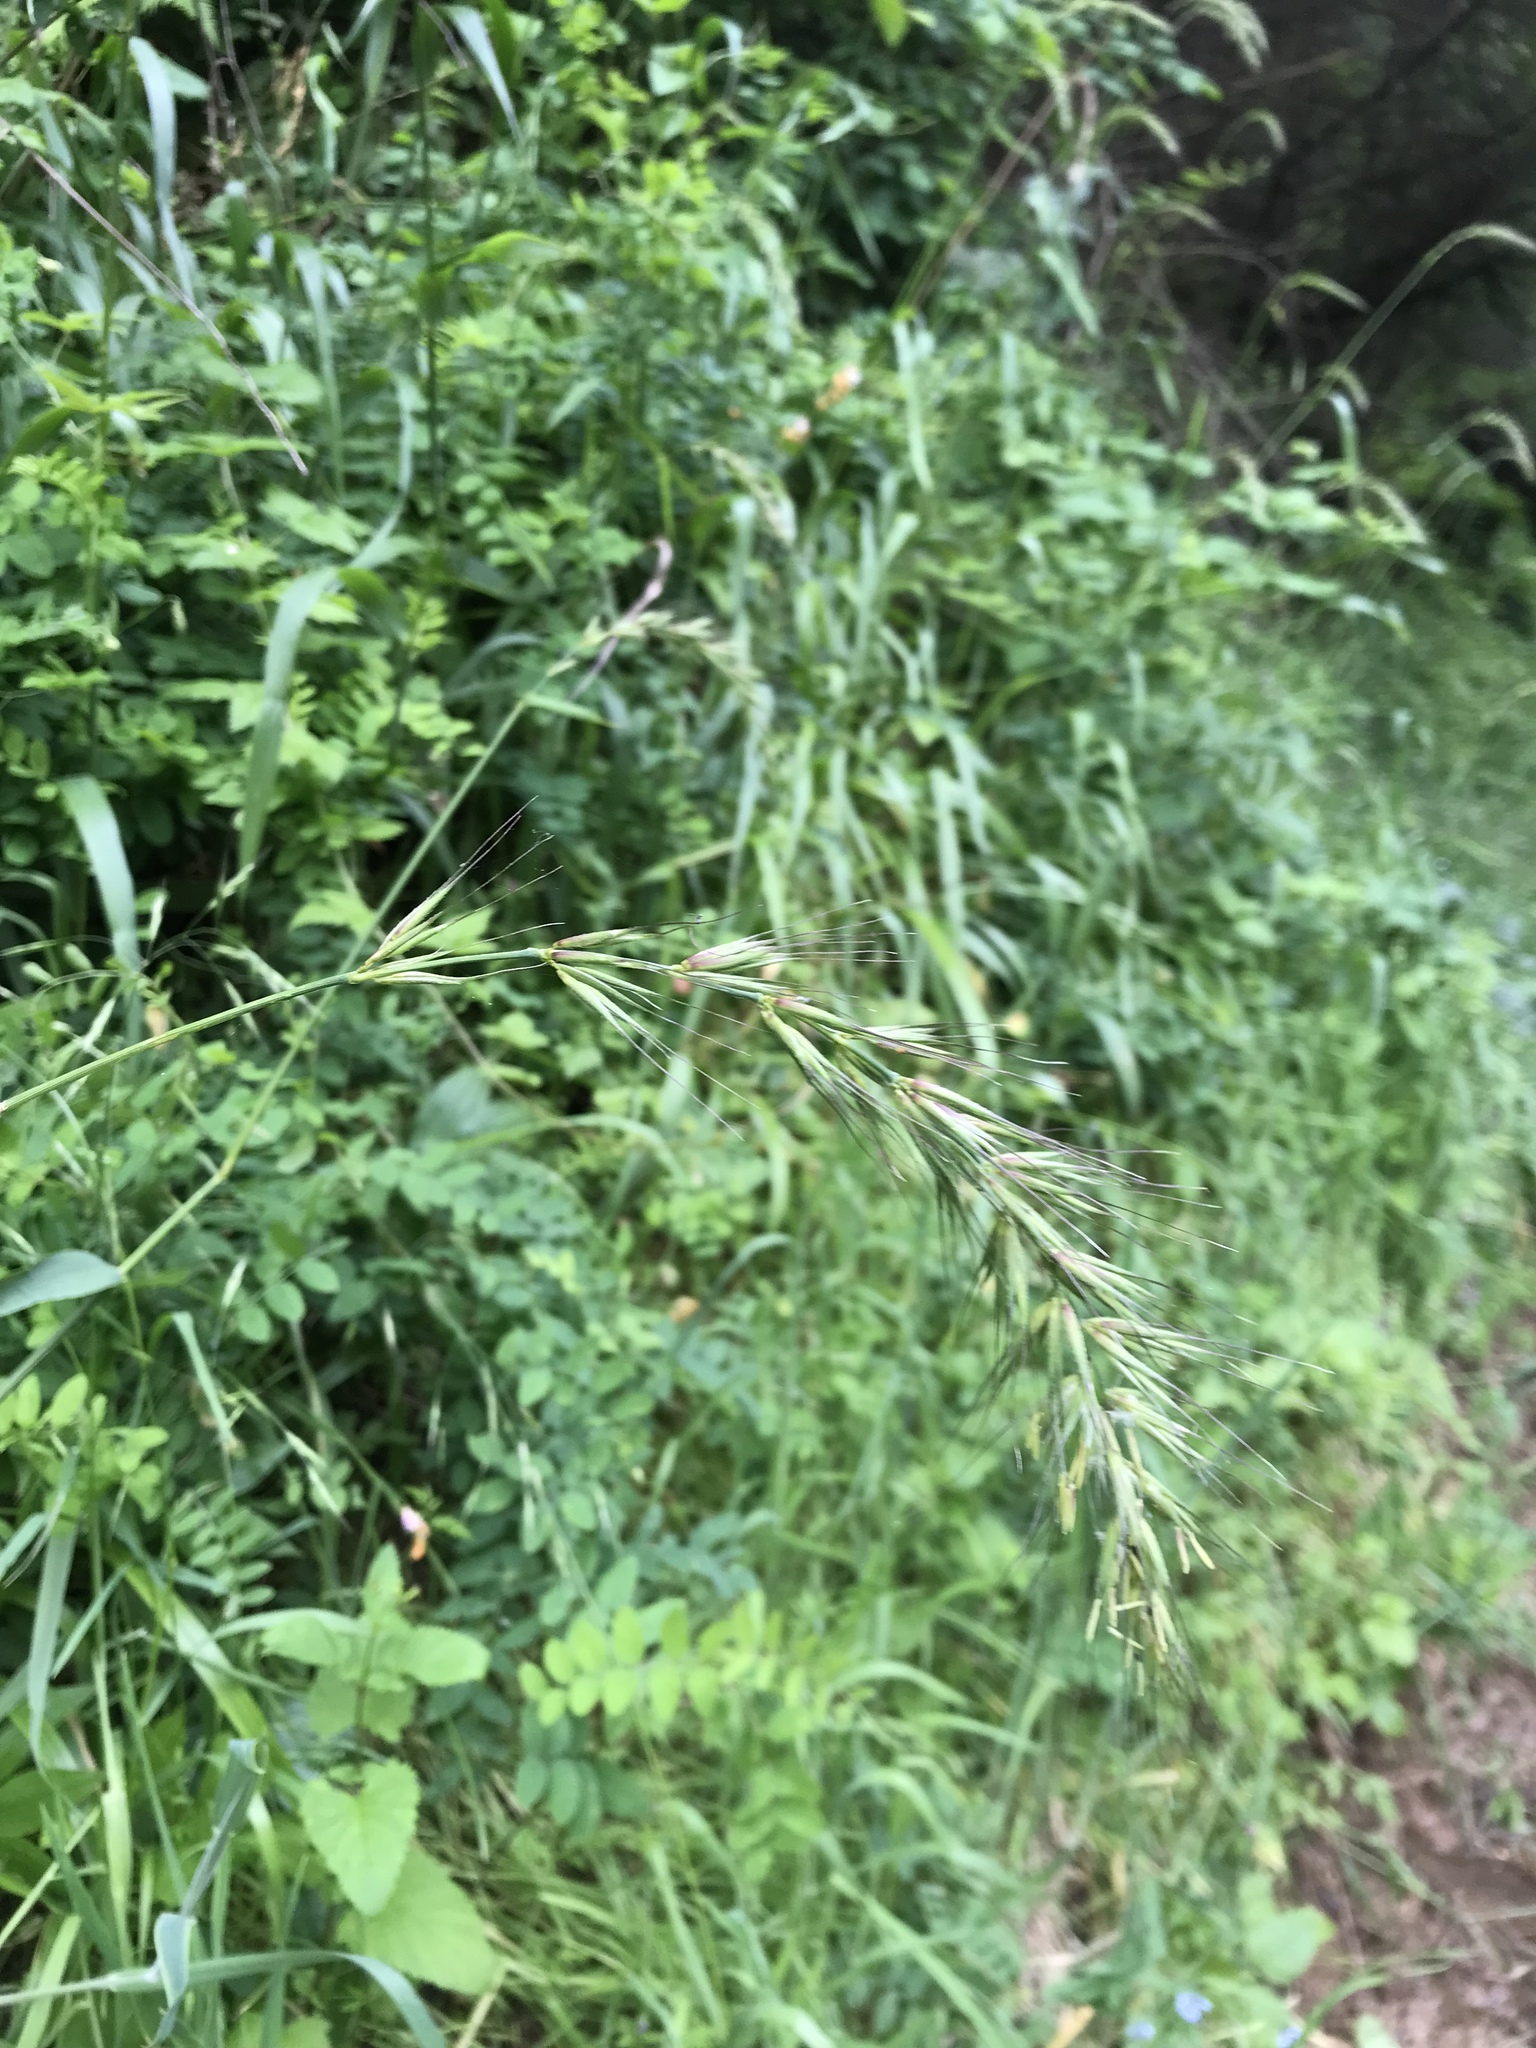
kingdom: Plantae
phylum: Tracheophyta
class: Liliopsida
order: Poales
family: Poaceae
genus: Elymus
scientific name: Elymus californicus
